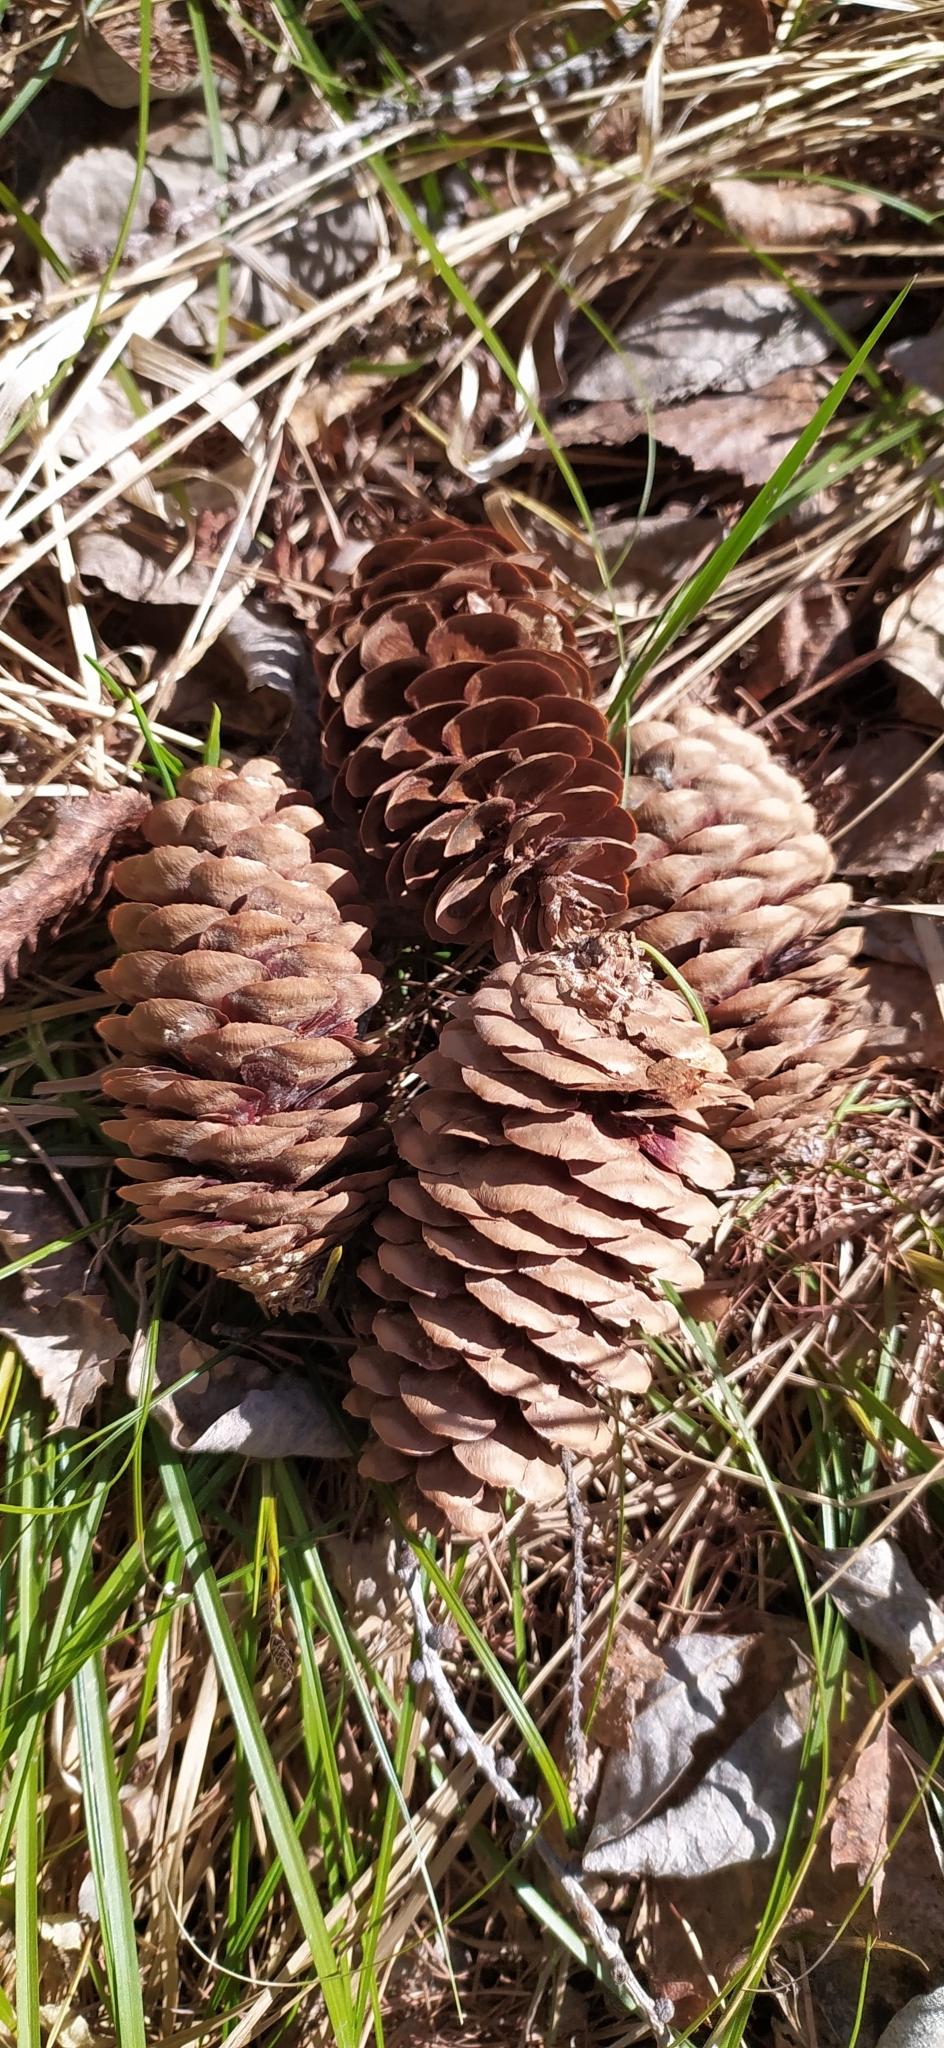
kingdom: Plantae
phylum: Tracheophyta
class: Pinopsida
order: Pinales
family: Pinaceae
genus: Picea
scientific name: Picea obovata
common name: Siberian spruce
